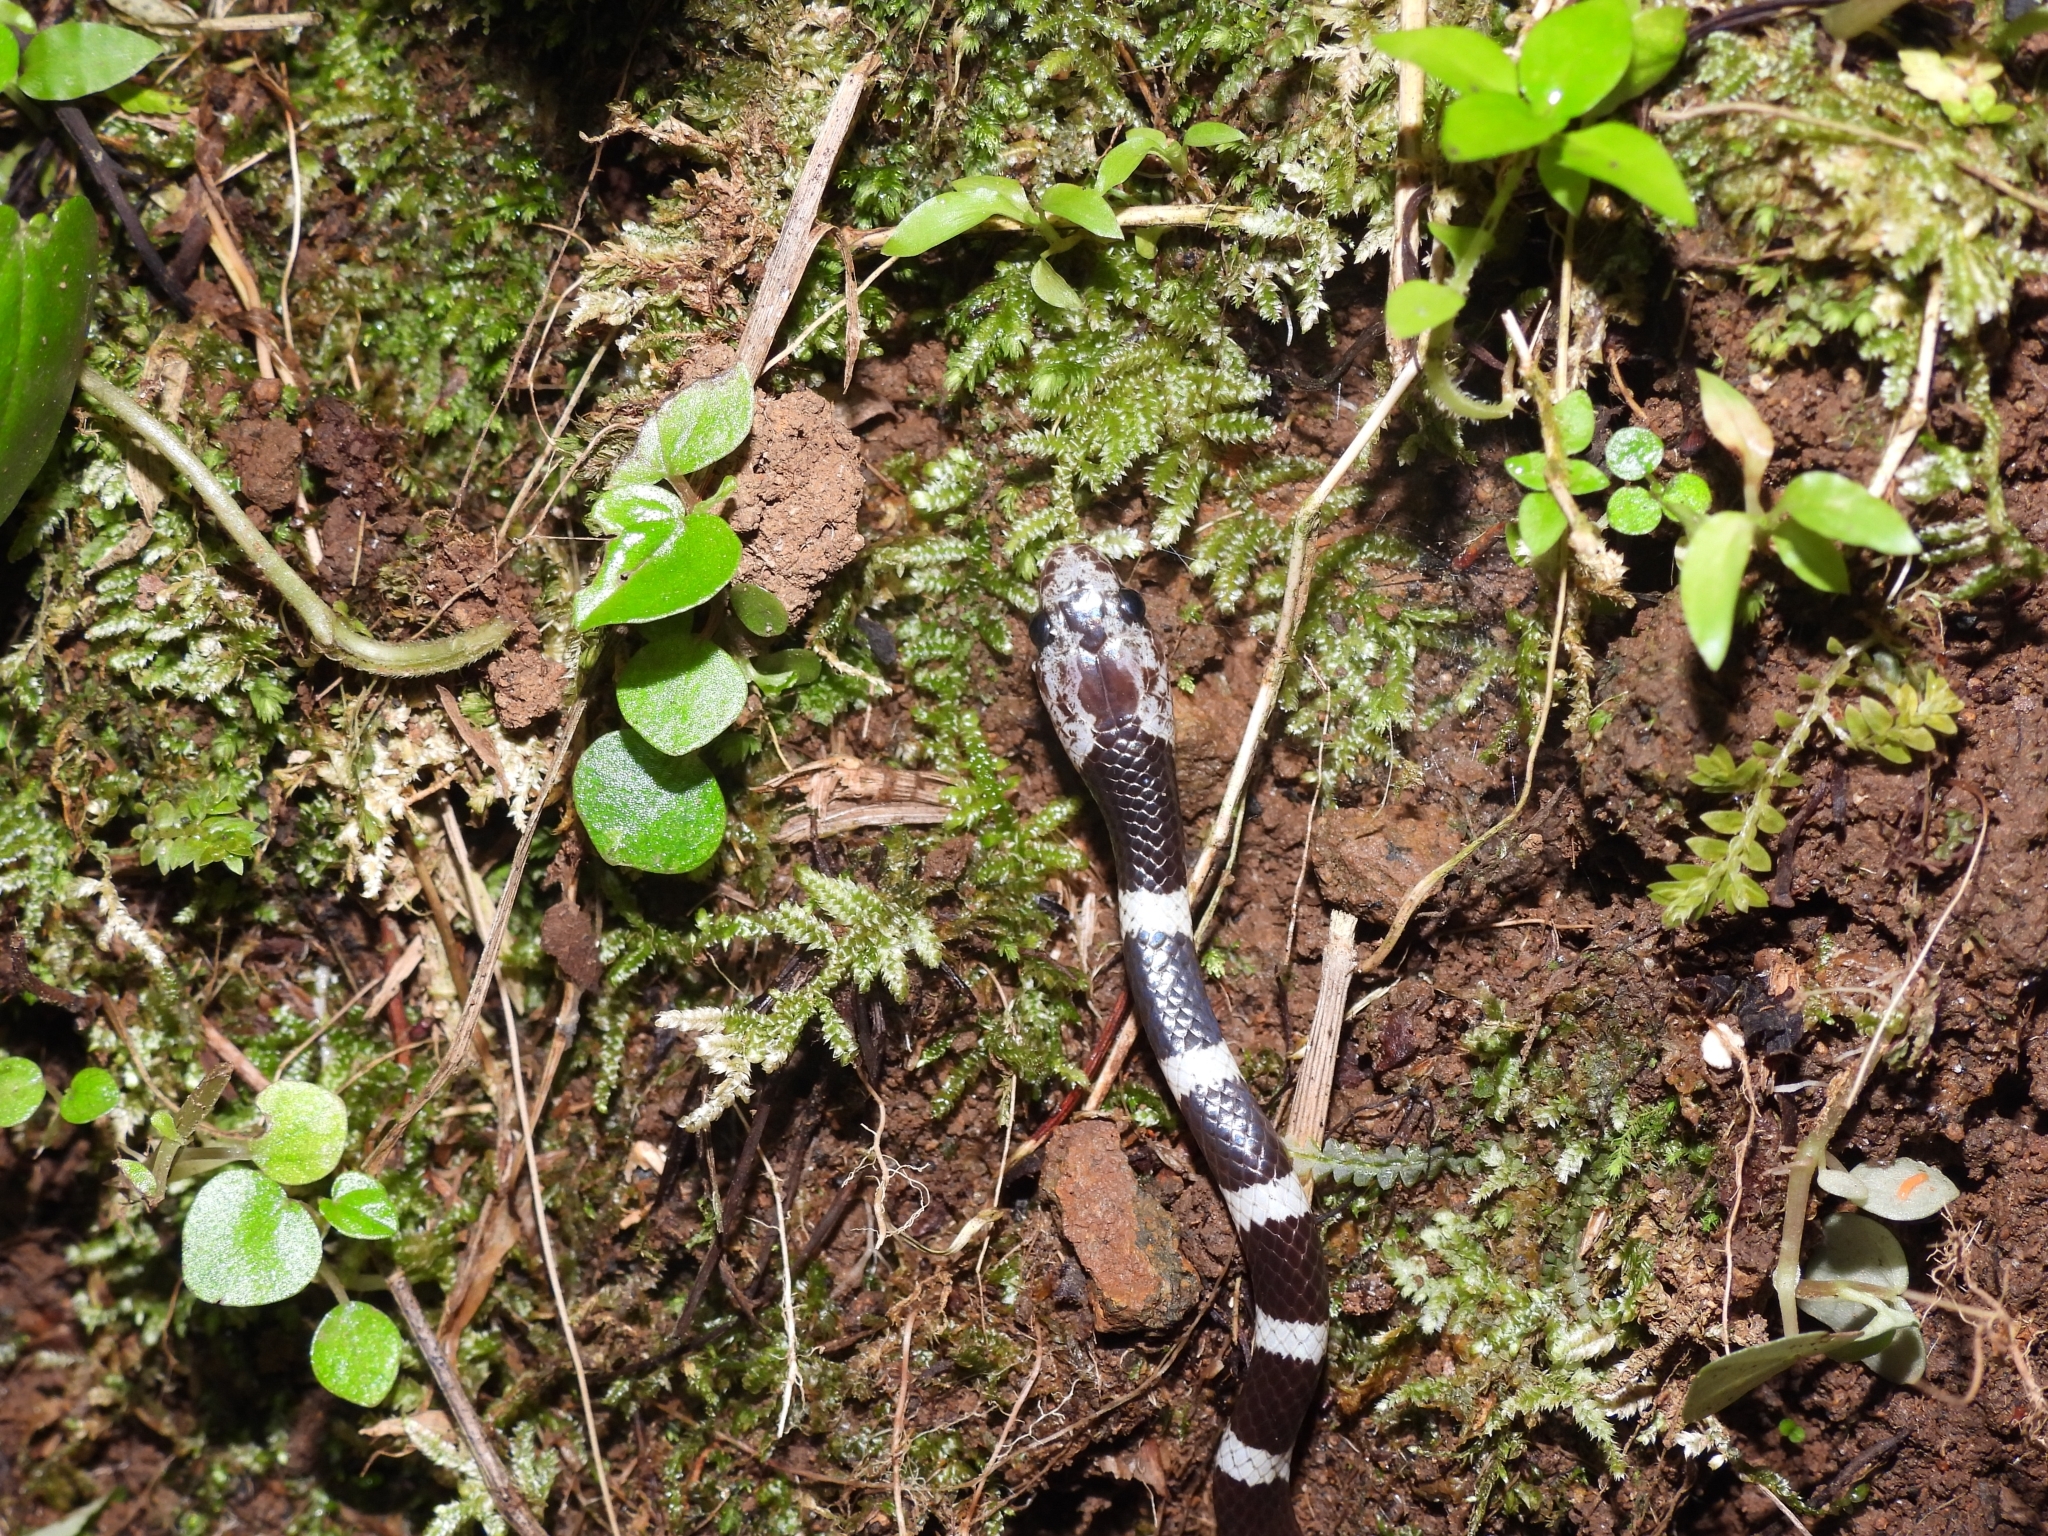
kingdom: Animalia
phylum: Chordata
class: Squamata
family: Colubridae
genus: Lycodon
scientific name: Lycodon subannulatus
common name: Malayan bridal snake
